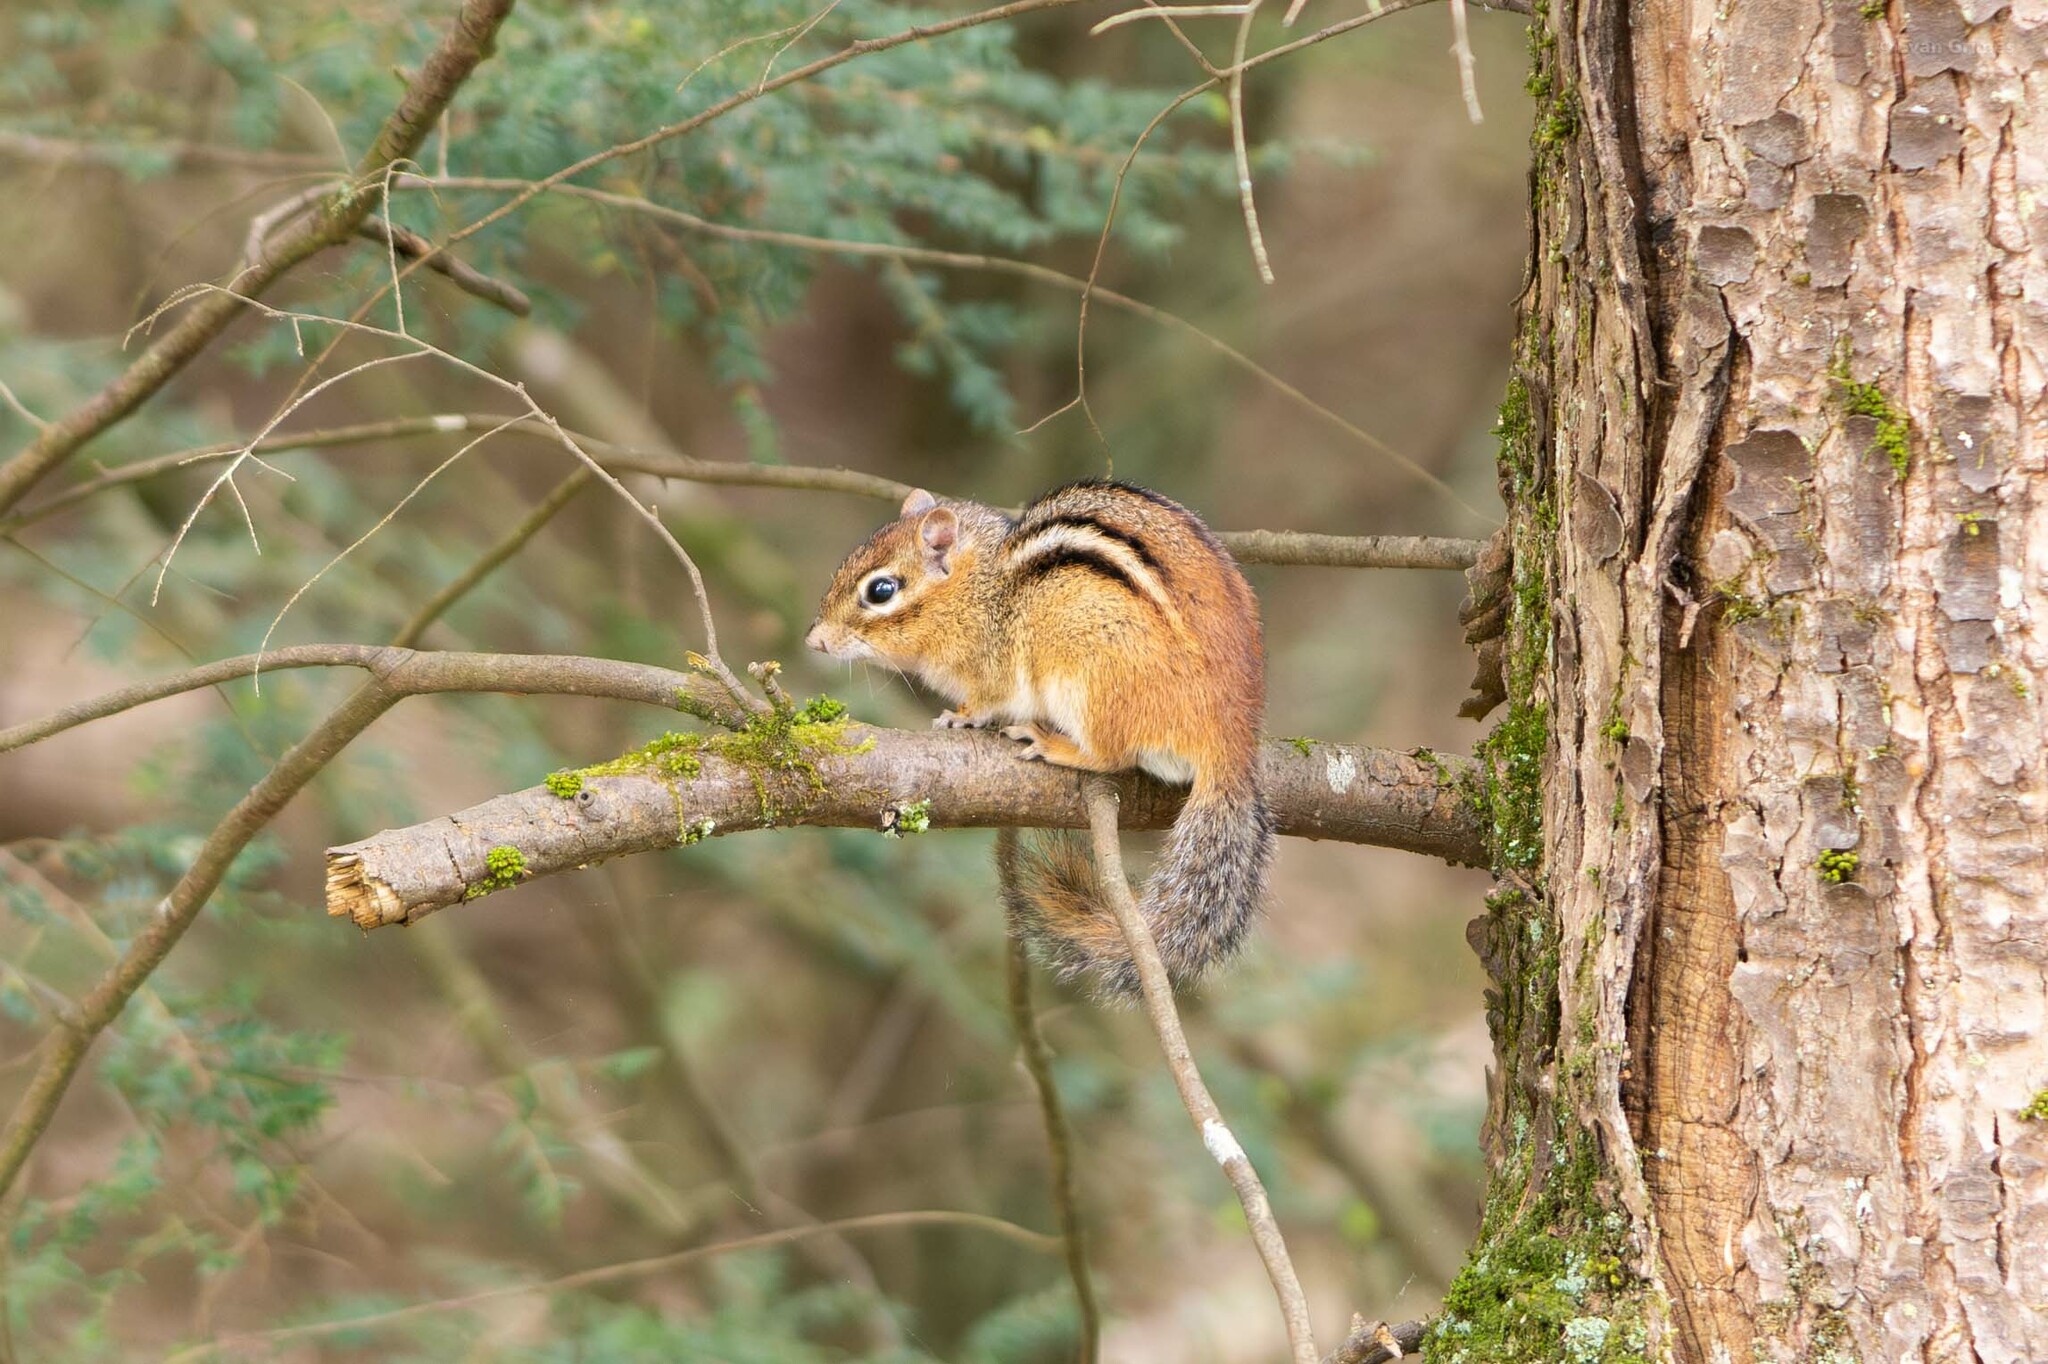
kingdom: Animalia
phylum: Chordata
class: Mammalia
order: Rodentia
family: Sciuridae
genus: Tamias
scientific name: Tamias striatus
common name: Eastern chipmunk
